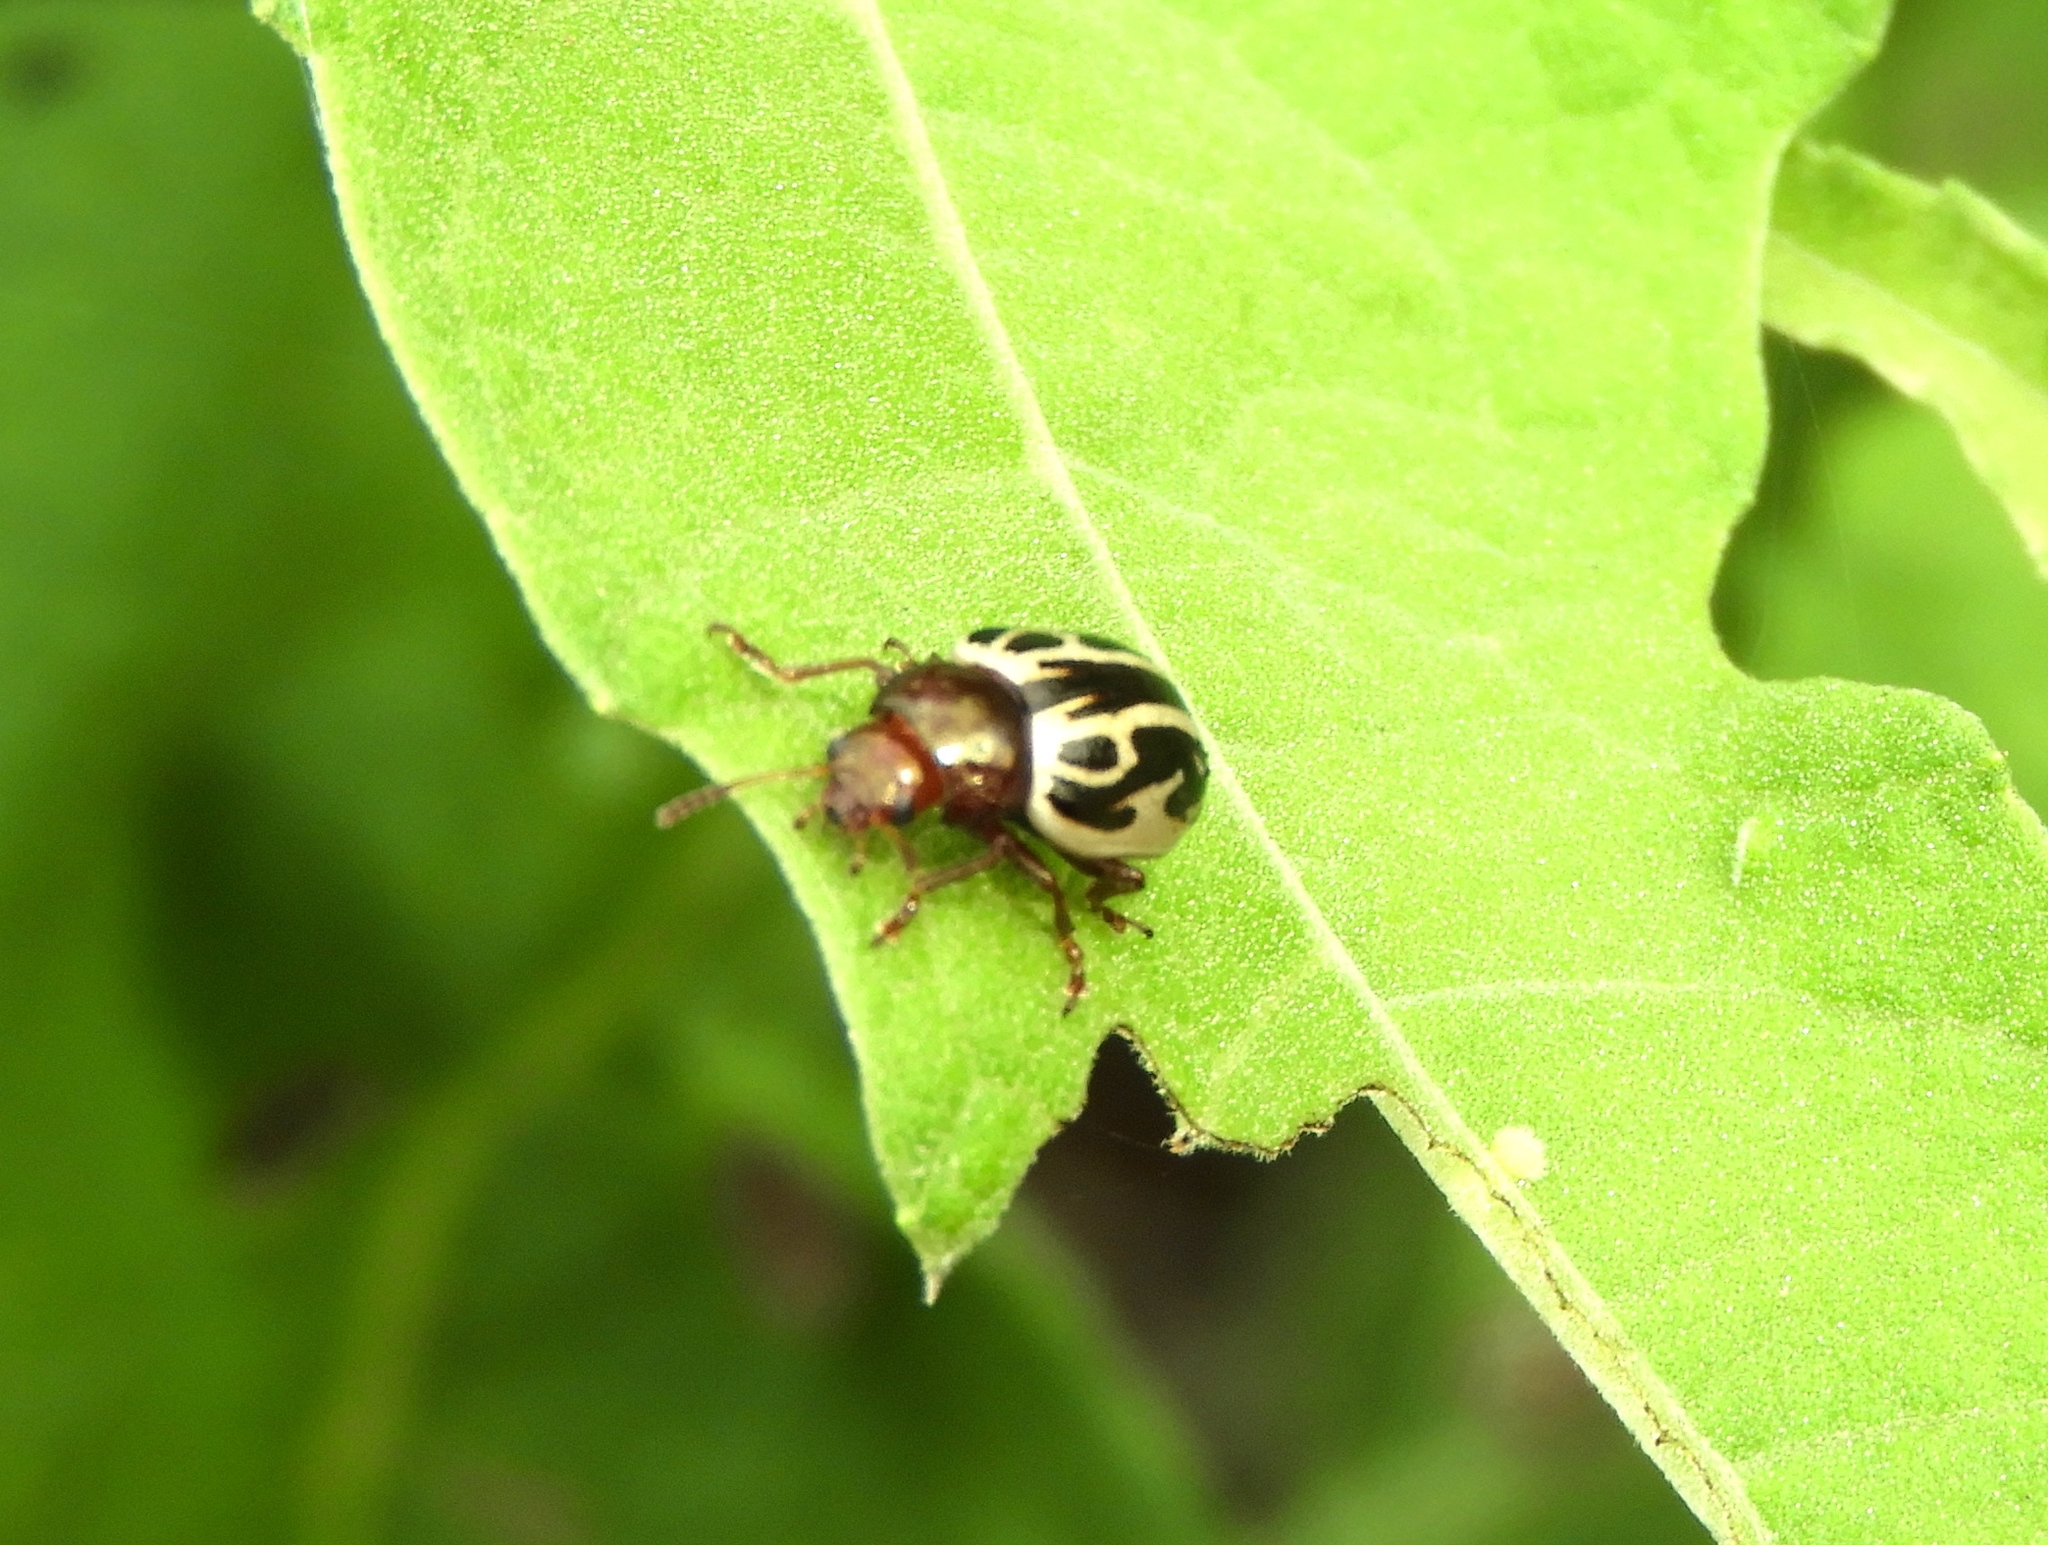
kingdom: Animalia
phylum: Arthropoda
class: Insecta
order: Coleoptera
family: Chrysomelidae
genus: Calligrapha
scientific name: Calligrapha
